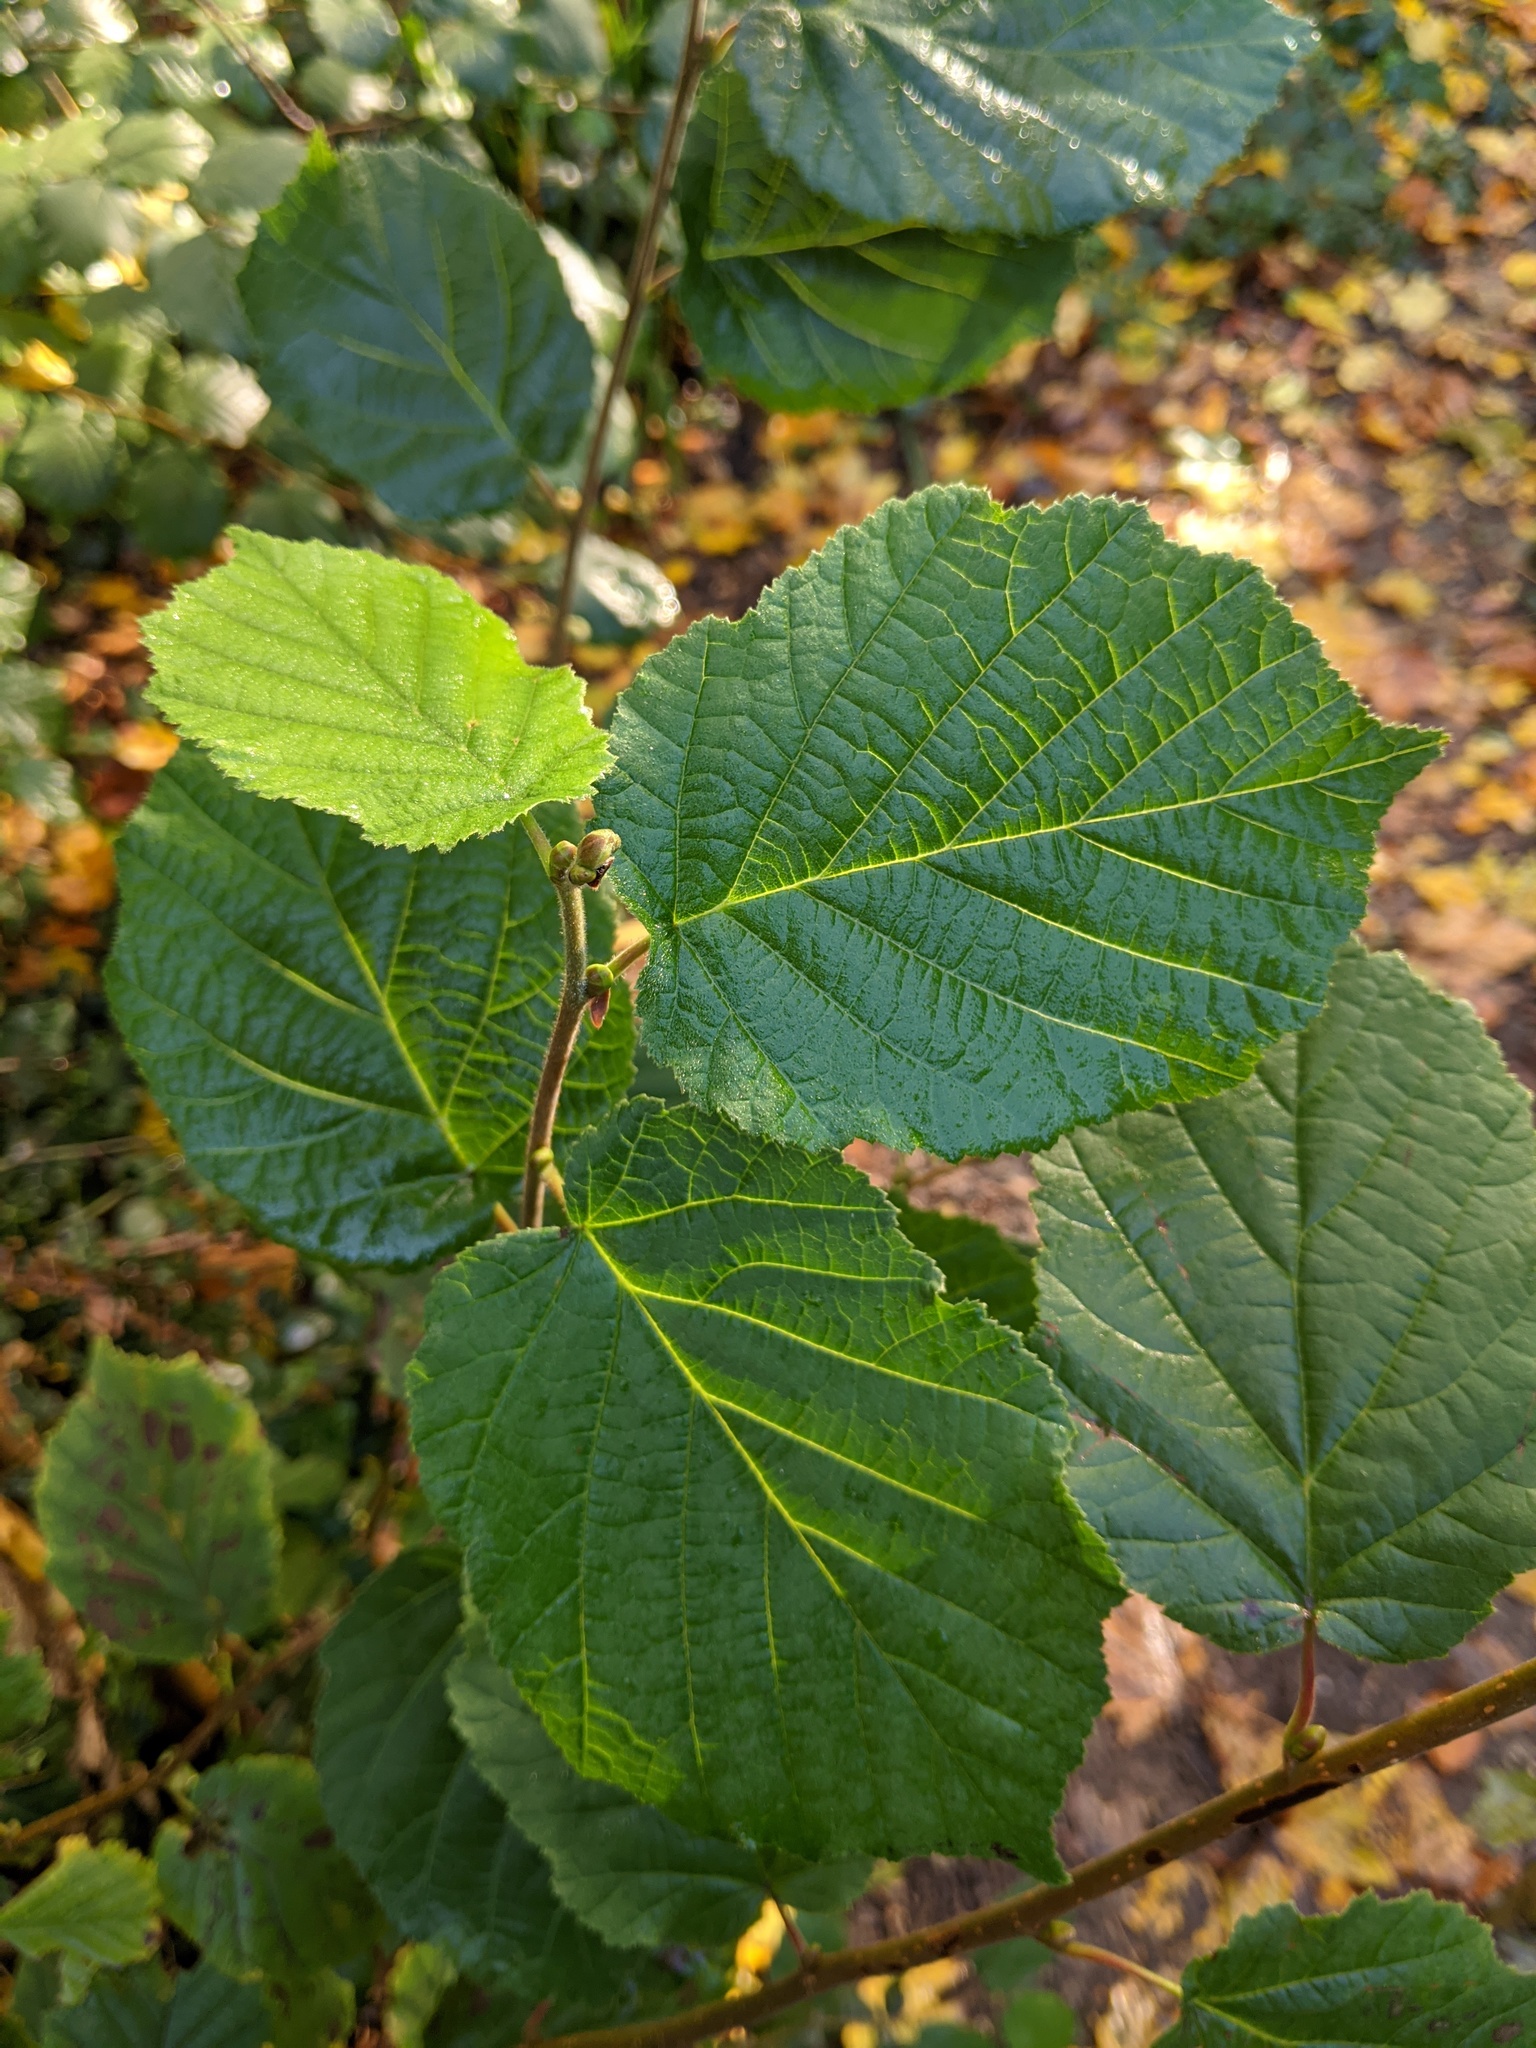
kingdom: Plantae
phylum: Tracheophyta
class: Magnoliopsida
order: Fagales
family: Betulaceae
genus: Corylus
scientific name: Corylus avellana
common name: European hazel
